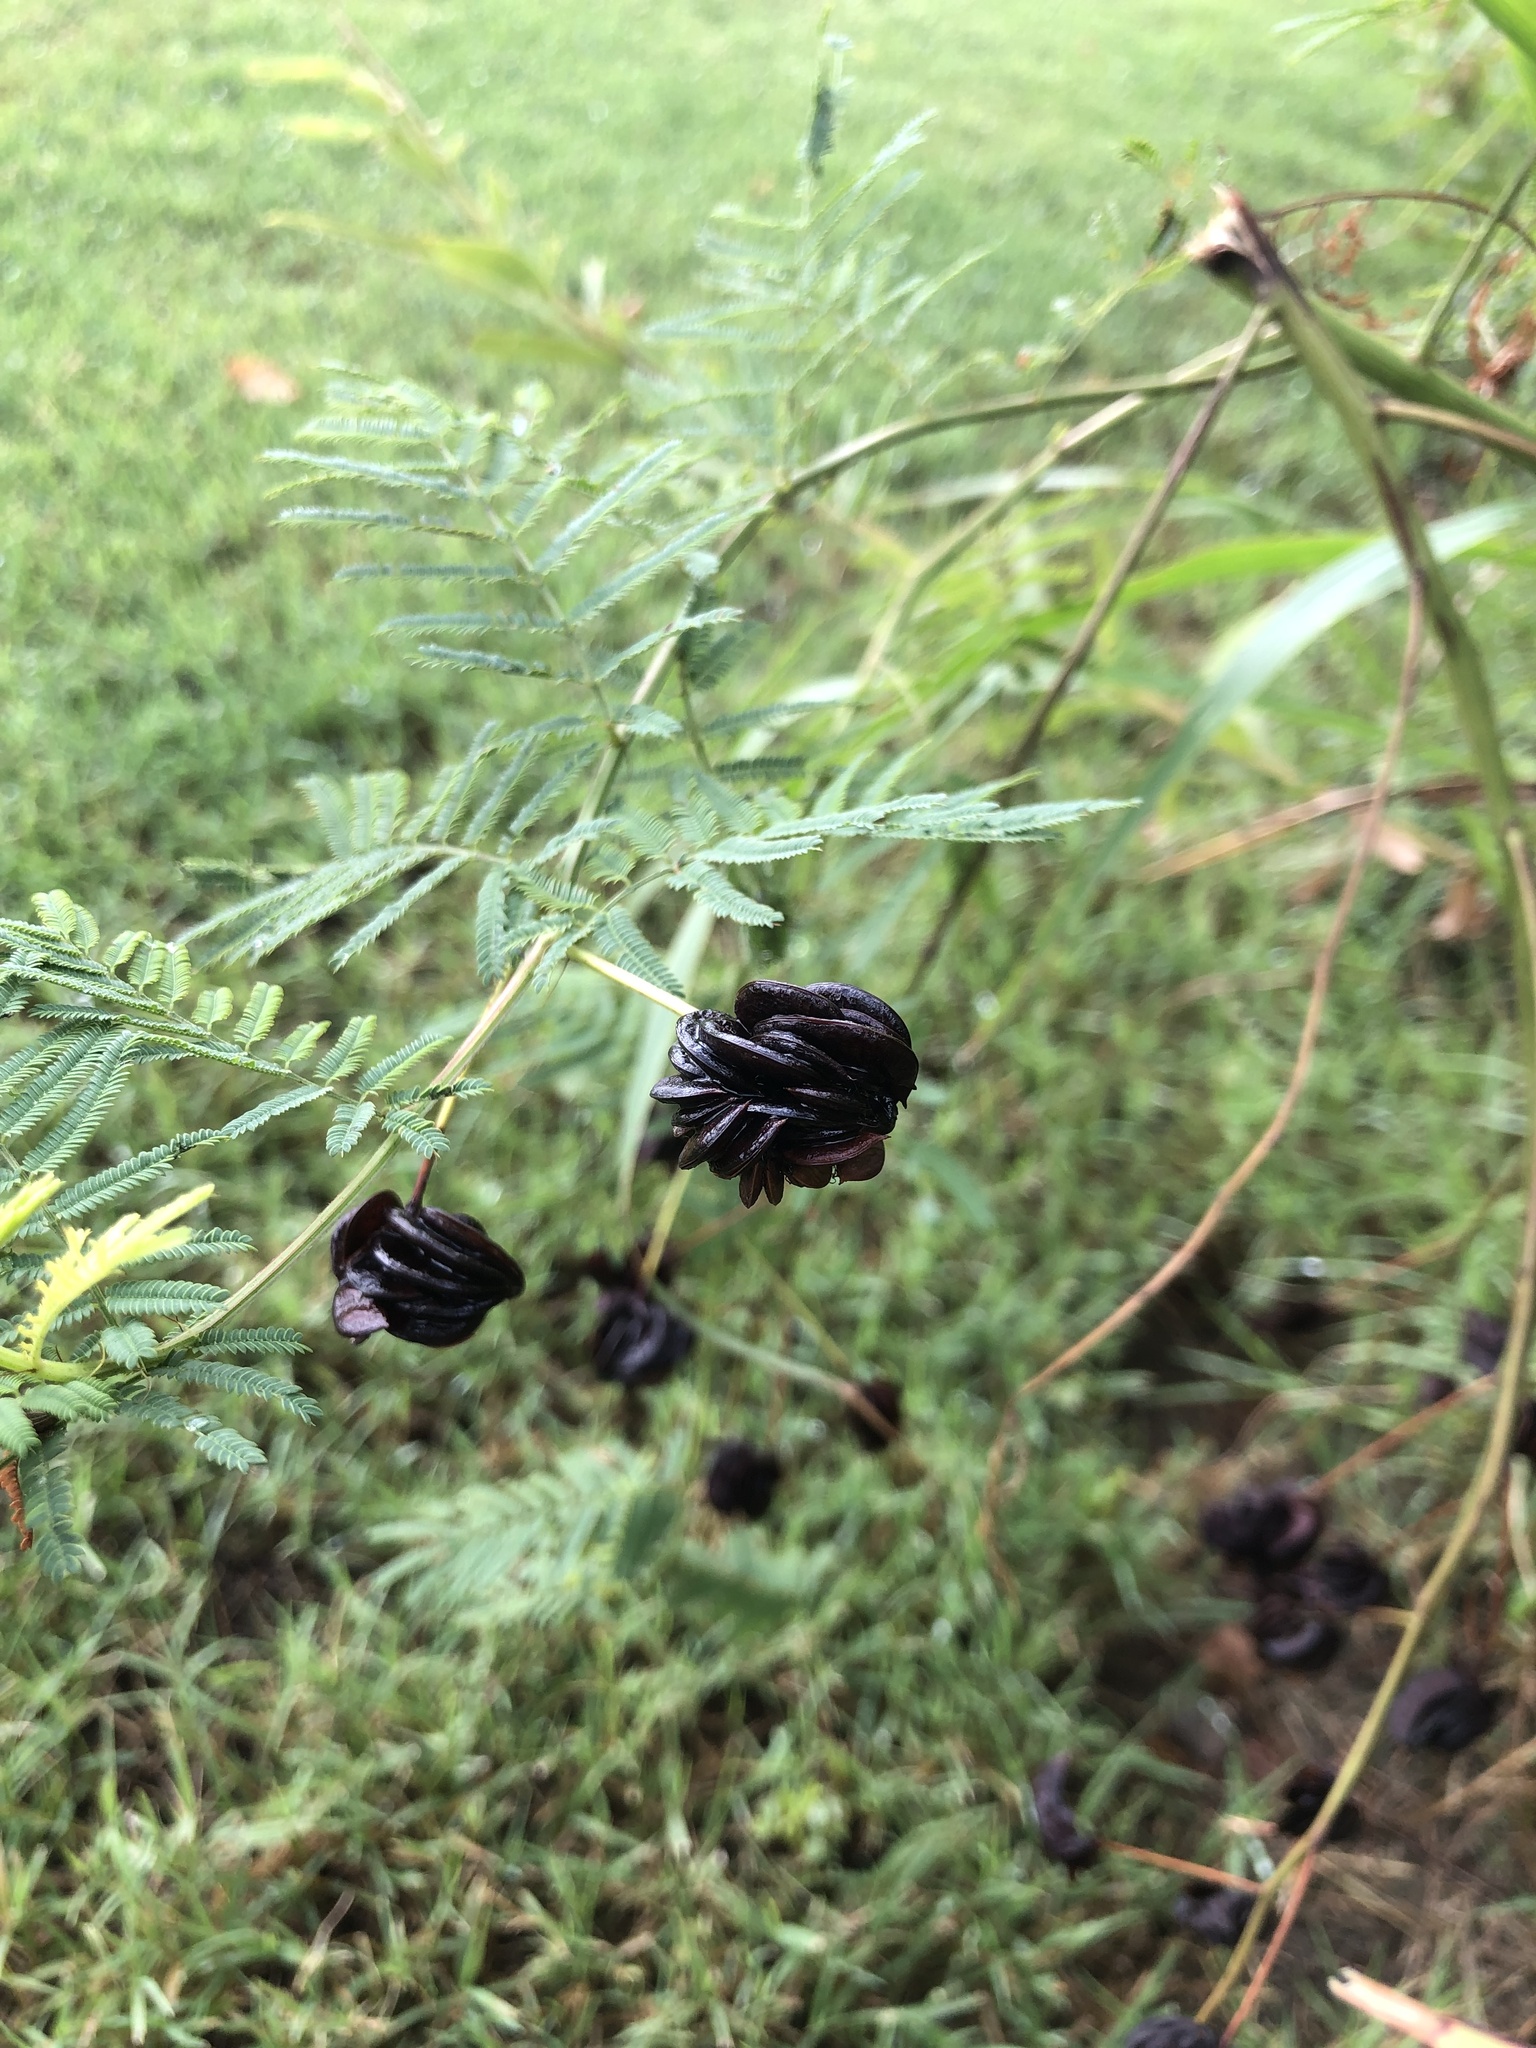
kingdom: Plantae
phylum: Tracheophyta
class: Magnoliopsida
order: Fabales
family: Fabaceae
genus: Desmanthus
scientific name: Desmanthus illinoensis
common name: Illinois bundle-flower
